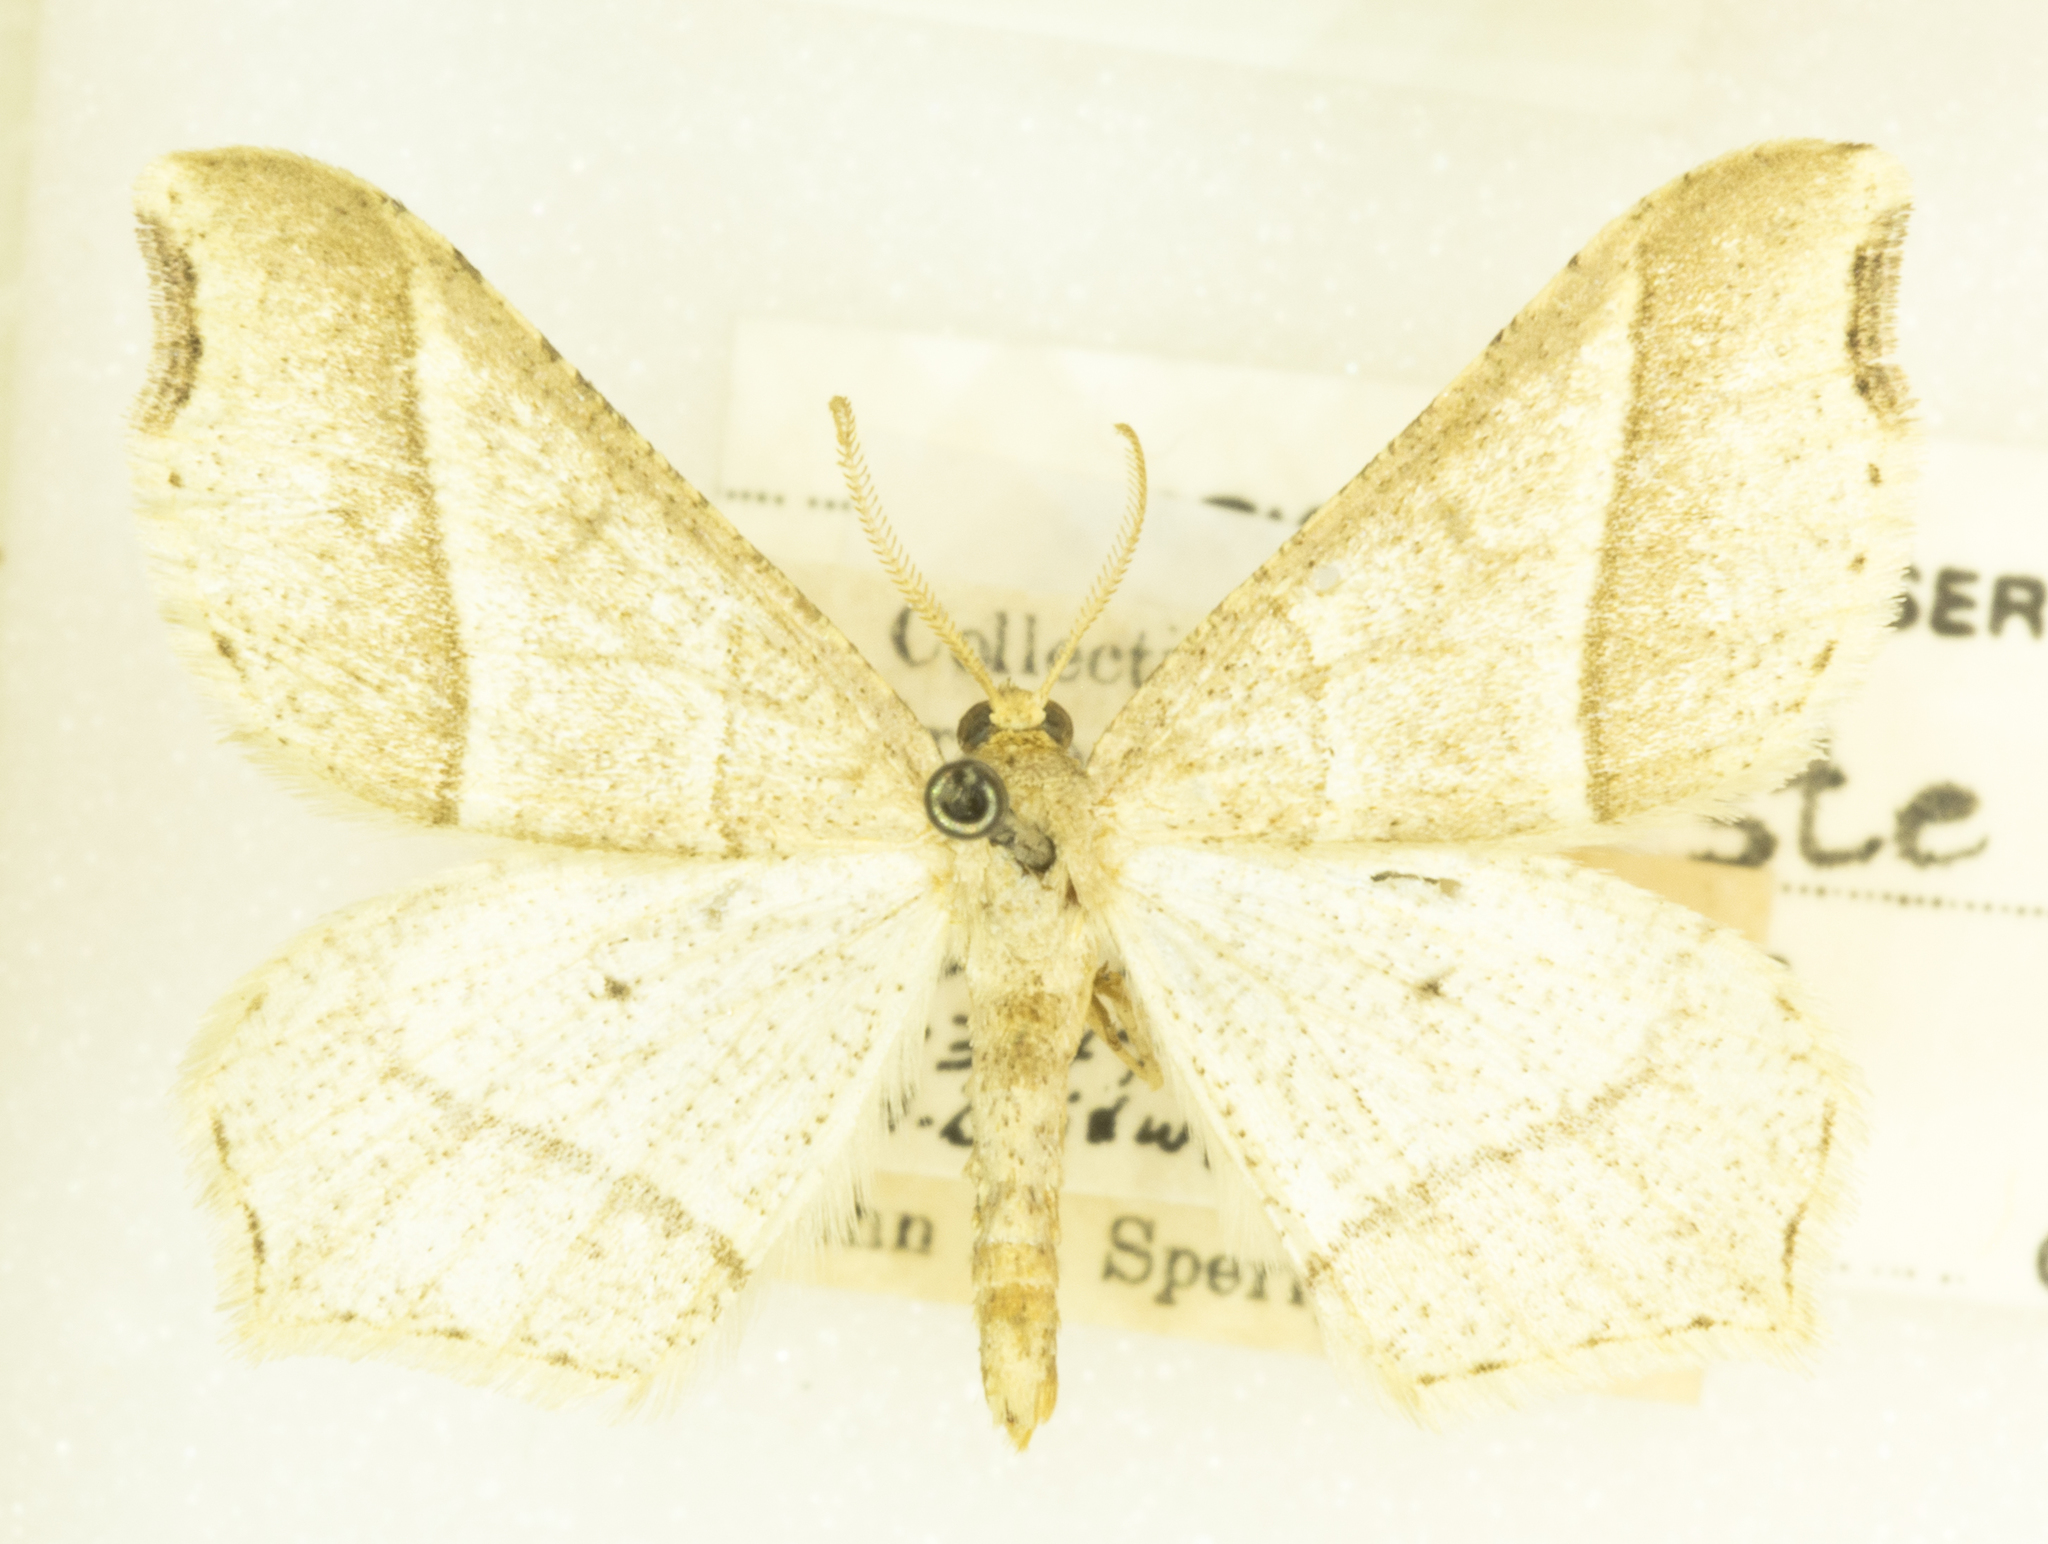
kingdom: Animalia
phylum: Arthropoda
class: Insecta
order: Lepidoptera
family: Geometridae
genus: Macaria
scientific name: Macaria metanemaria
